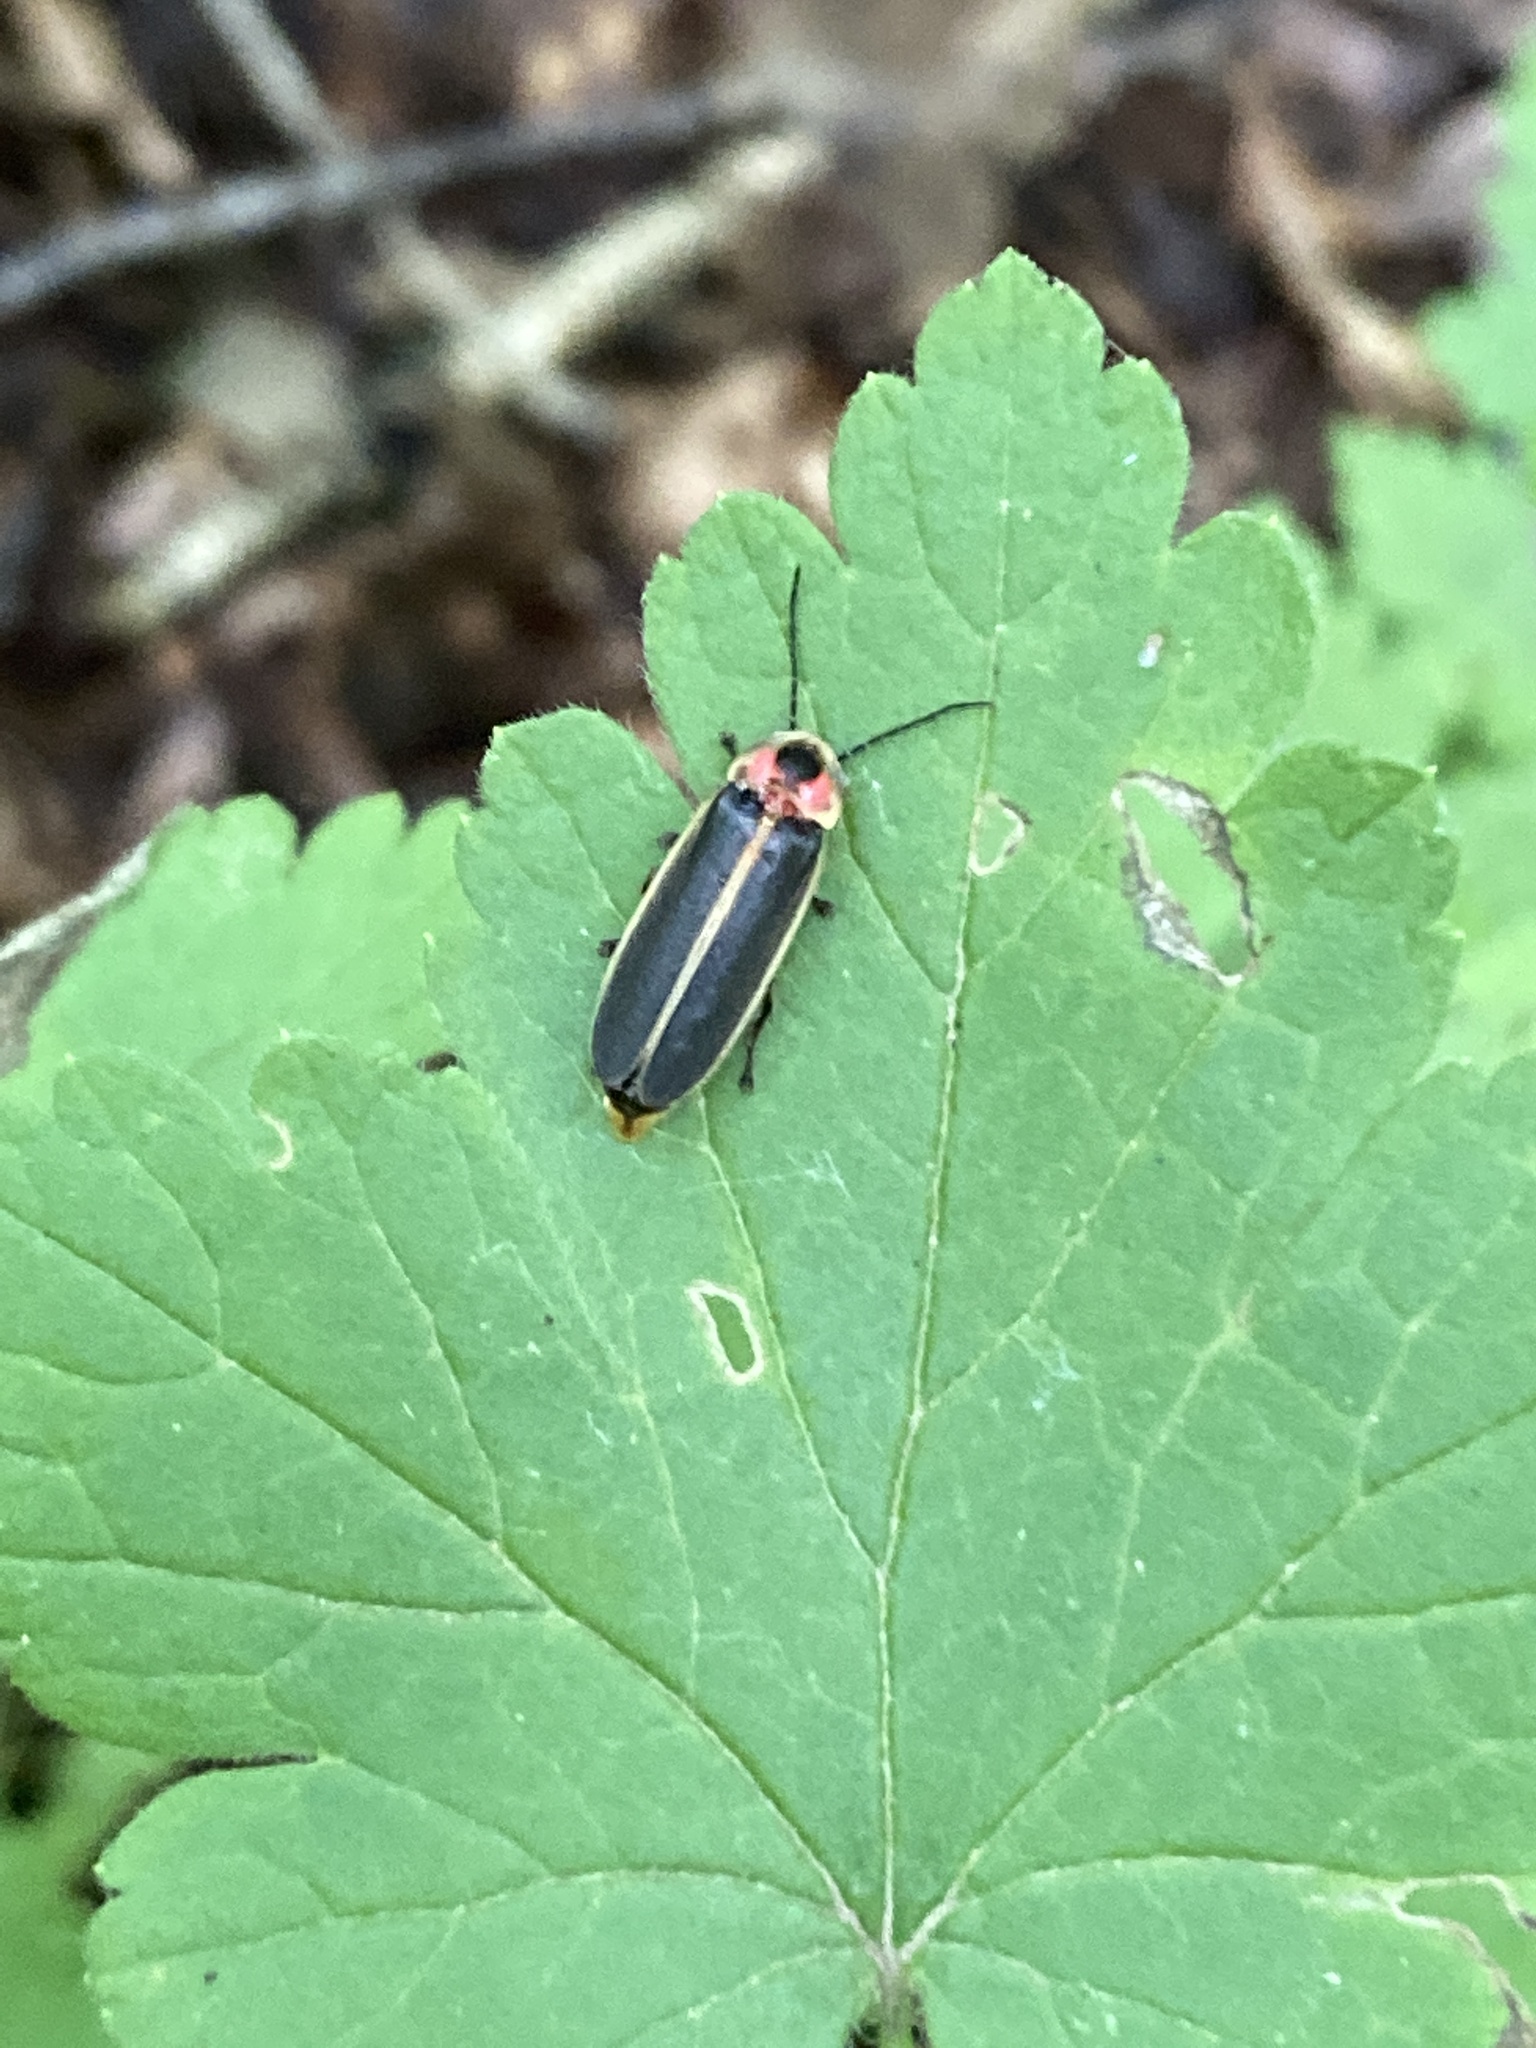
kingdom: Animalia
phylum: Arthropoda
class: Insecta
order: Coleoptera
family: Lampyridae
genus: Photinus
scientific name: Photinus pyralis
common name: Big dipper firefly
